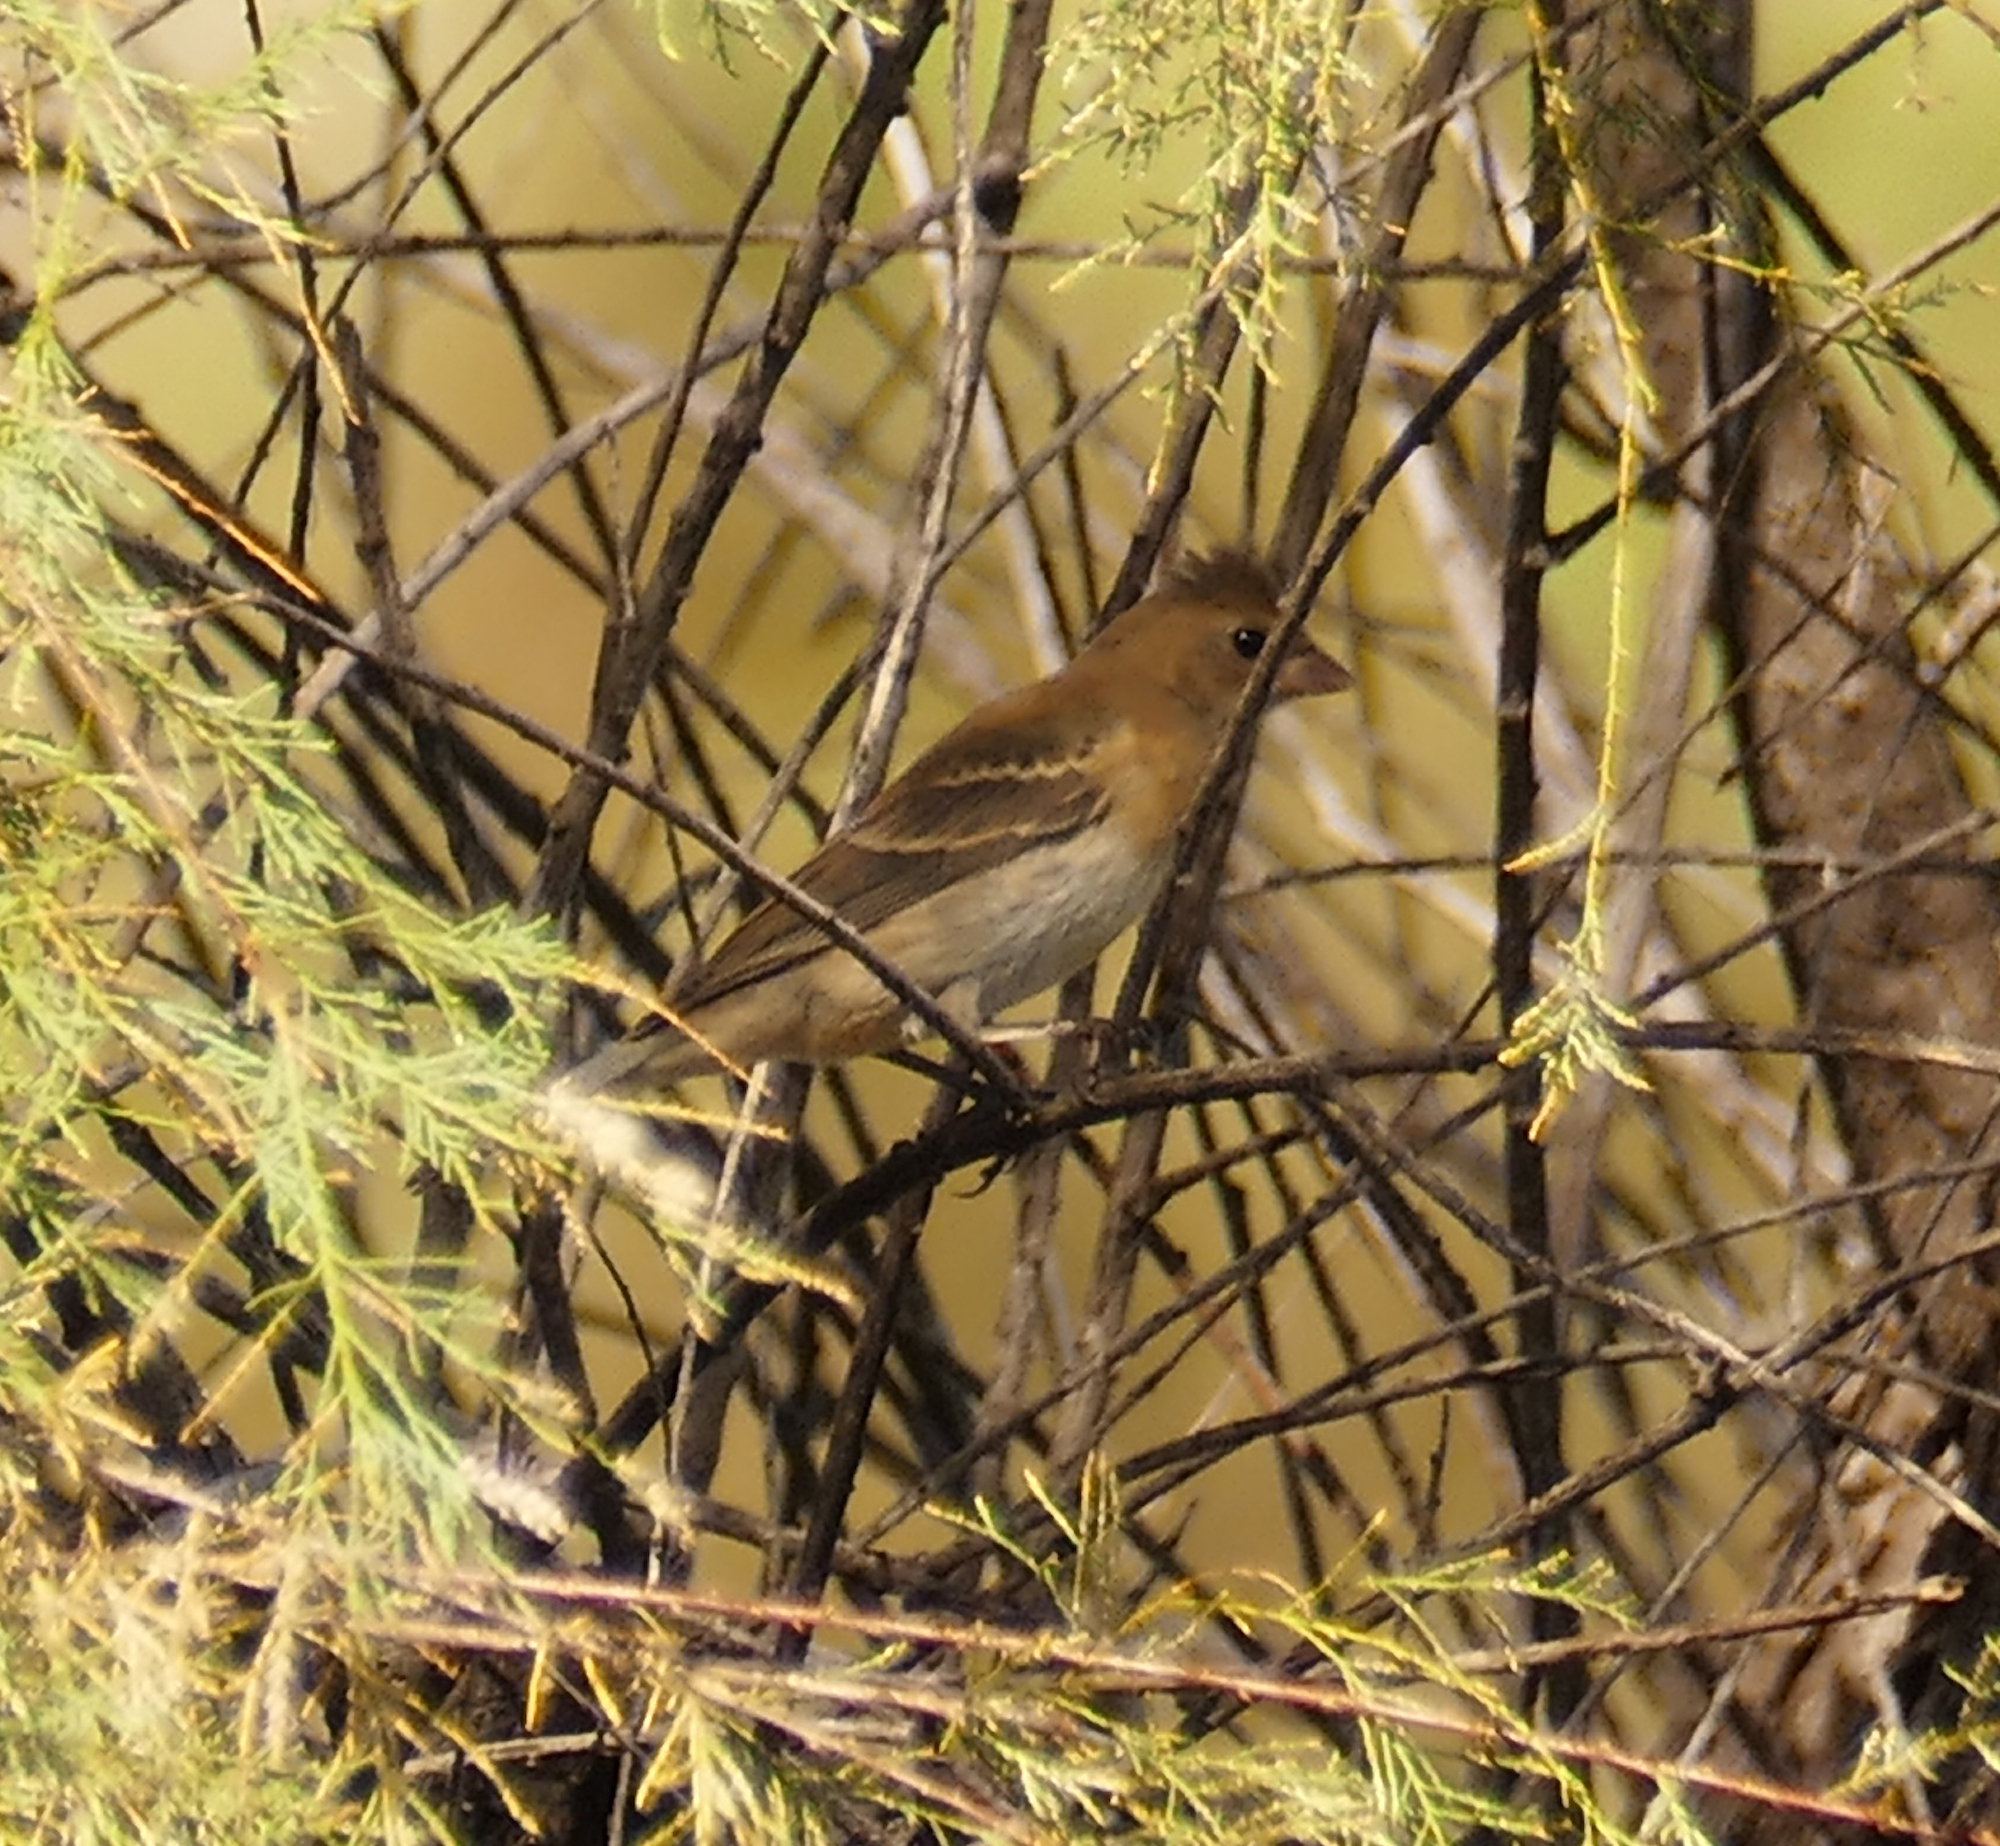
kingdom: Animalia
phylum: Chordata
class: Aves
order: Passeriformes
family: Cardinalidae
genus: Passerina
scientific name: Passerina amoena
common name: Lazuli bunting
